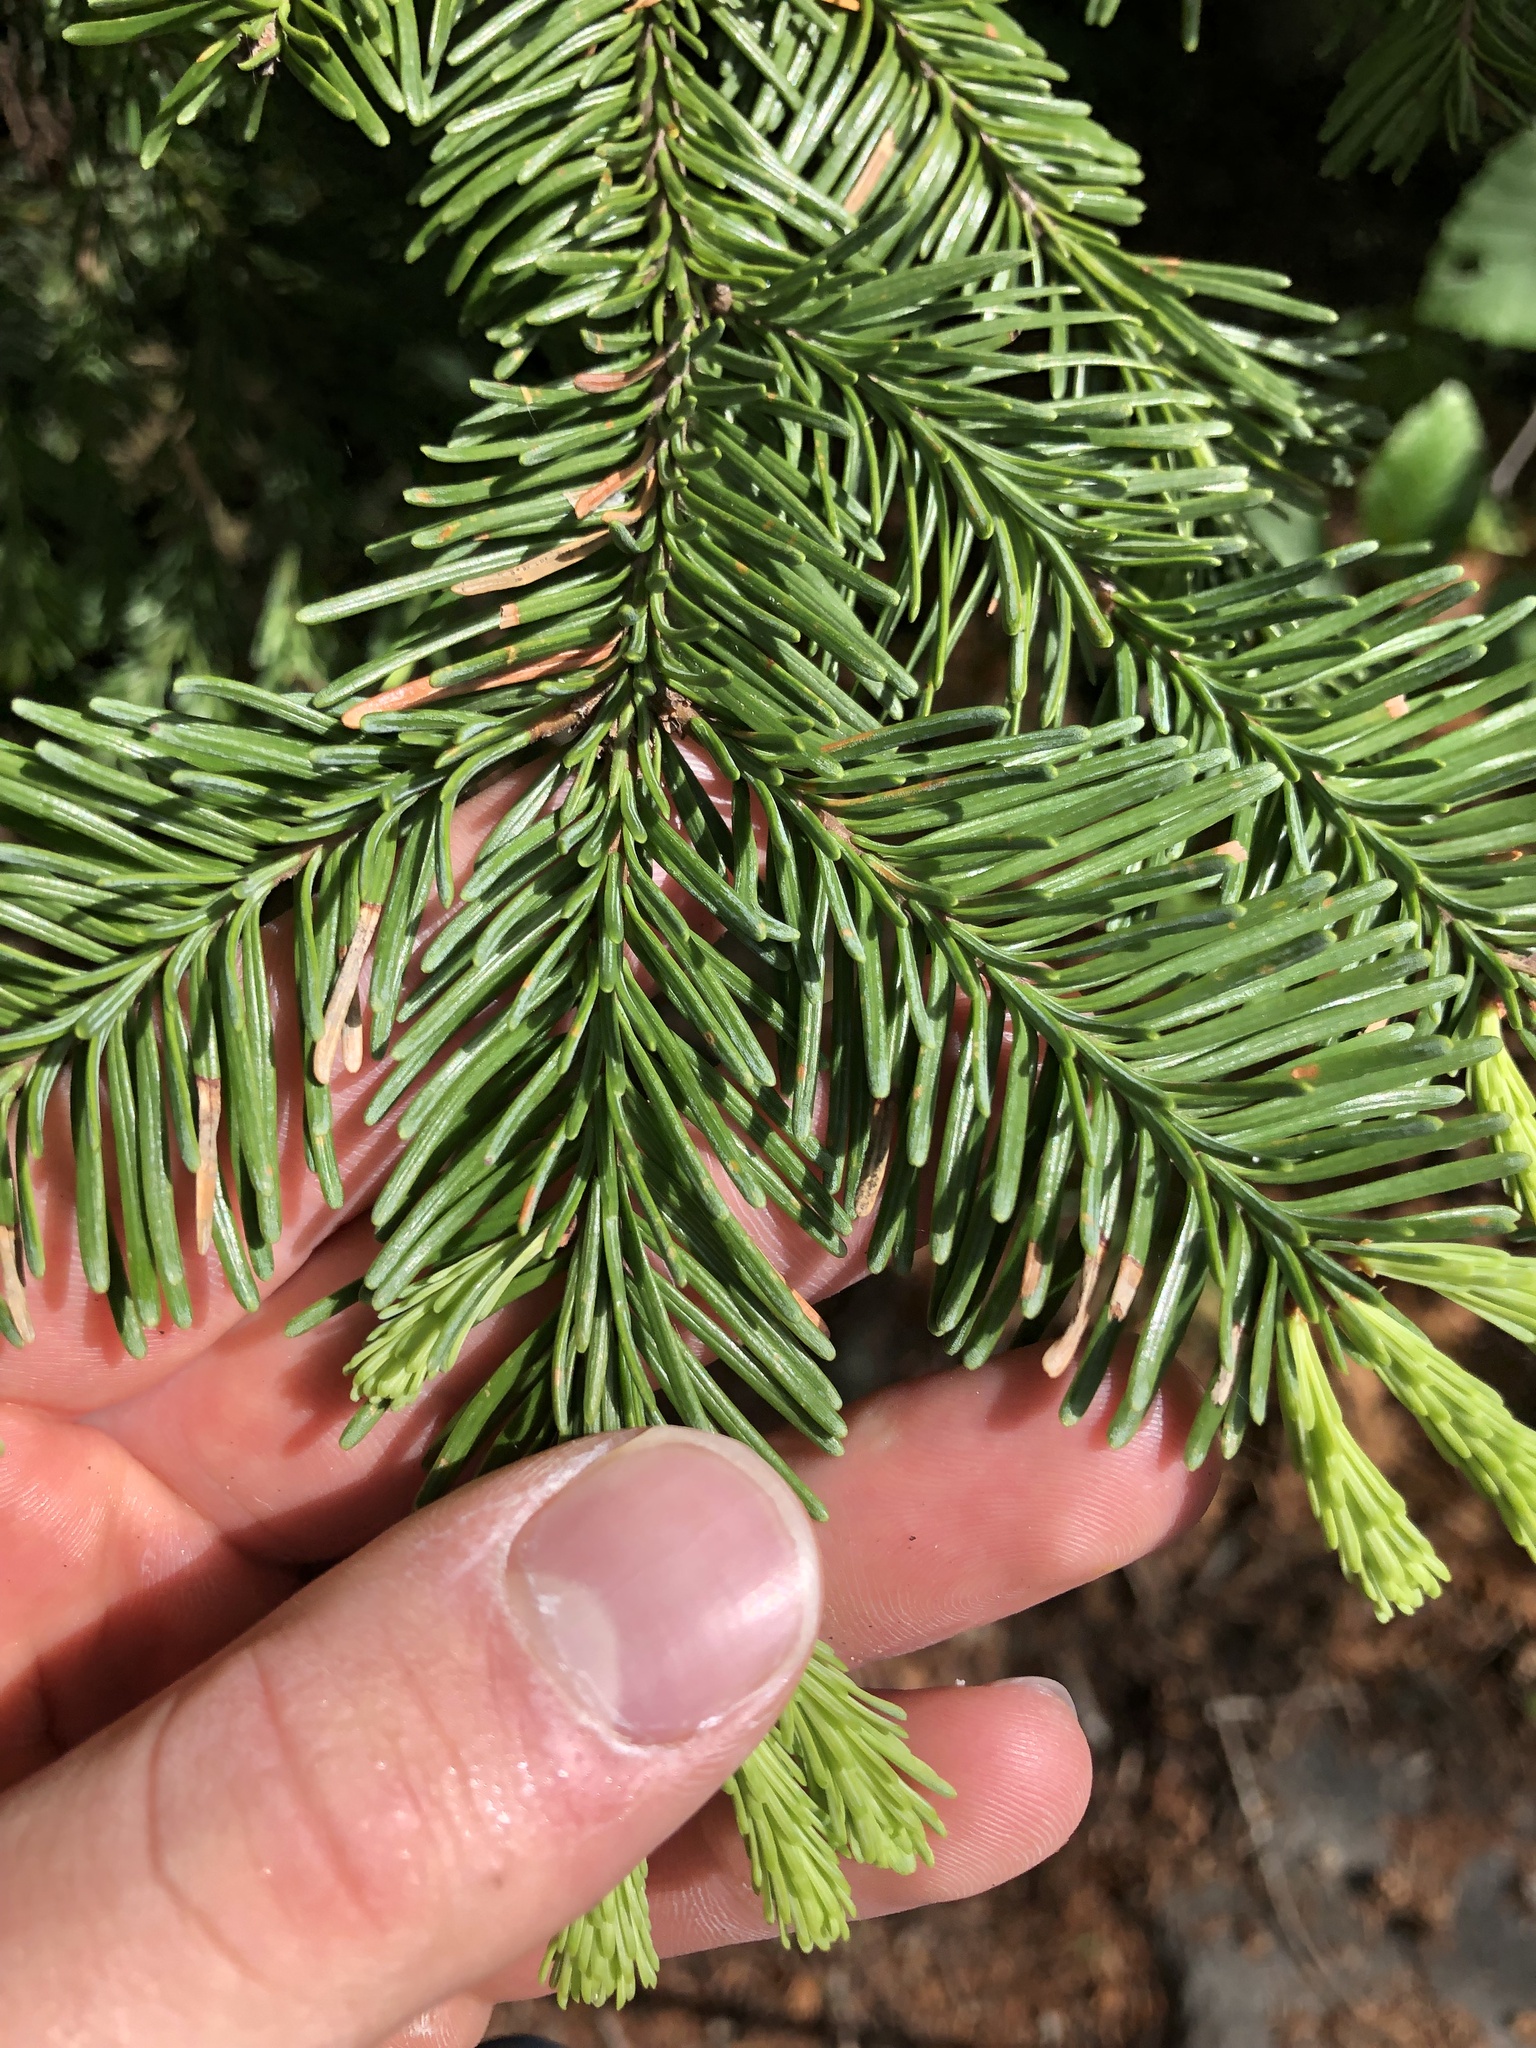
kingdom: Plantae
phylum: Tracheophyta
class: Pinopsida
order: Pinales
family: Pinaceae
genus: Abies
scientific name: Abies procera
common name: Noble fir
